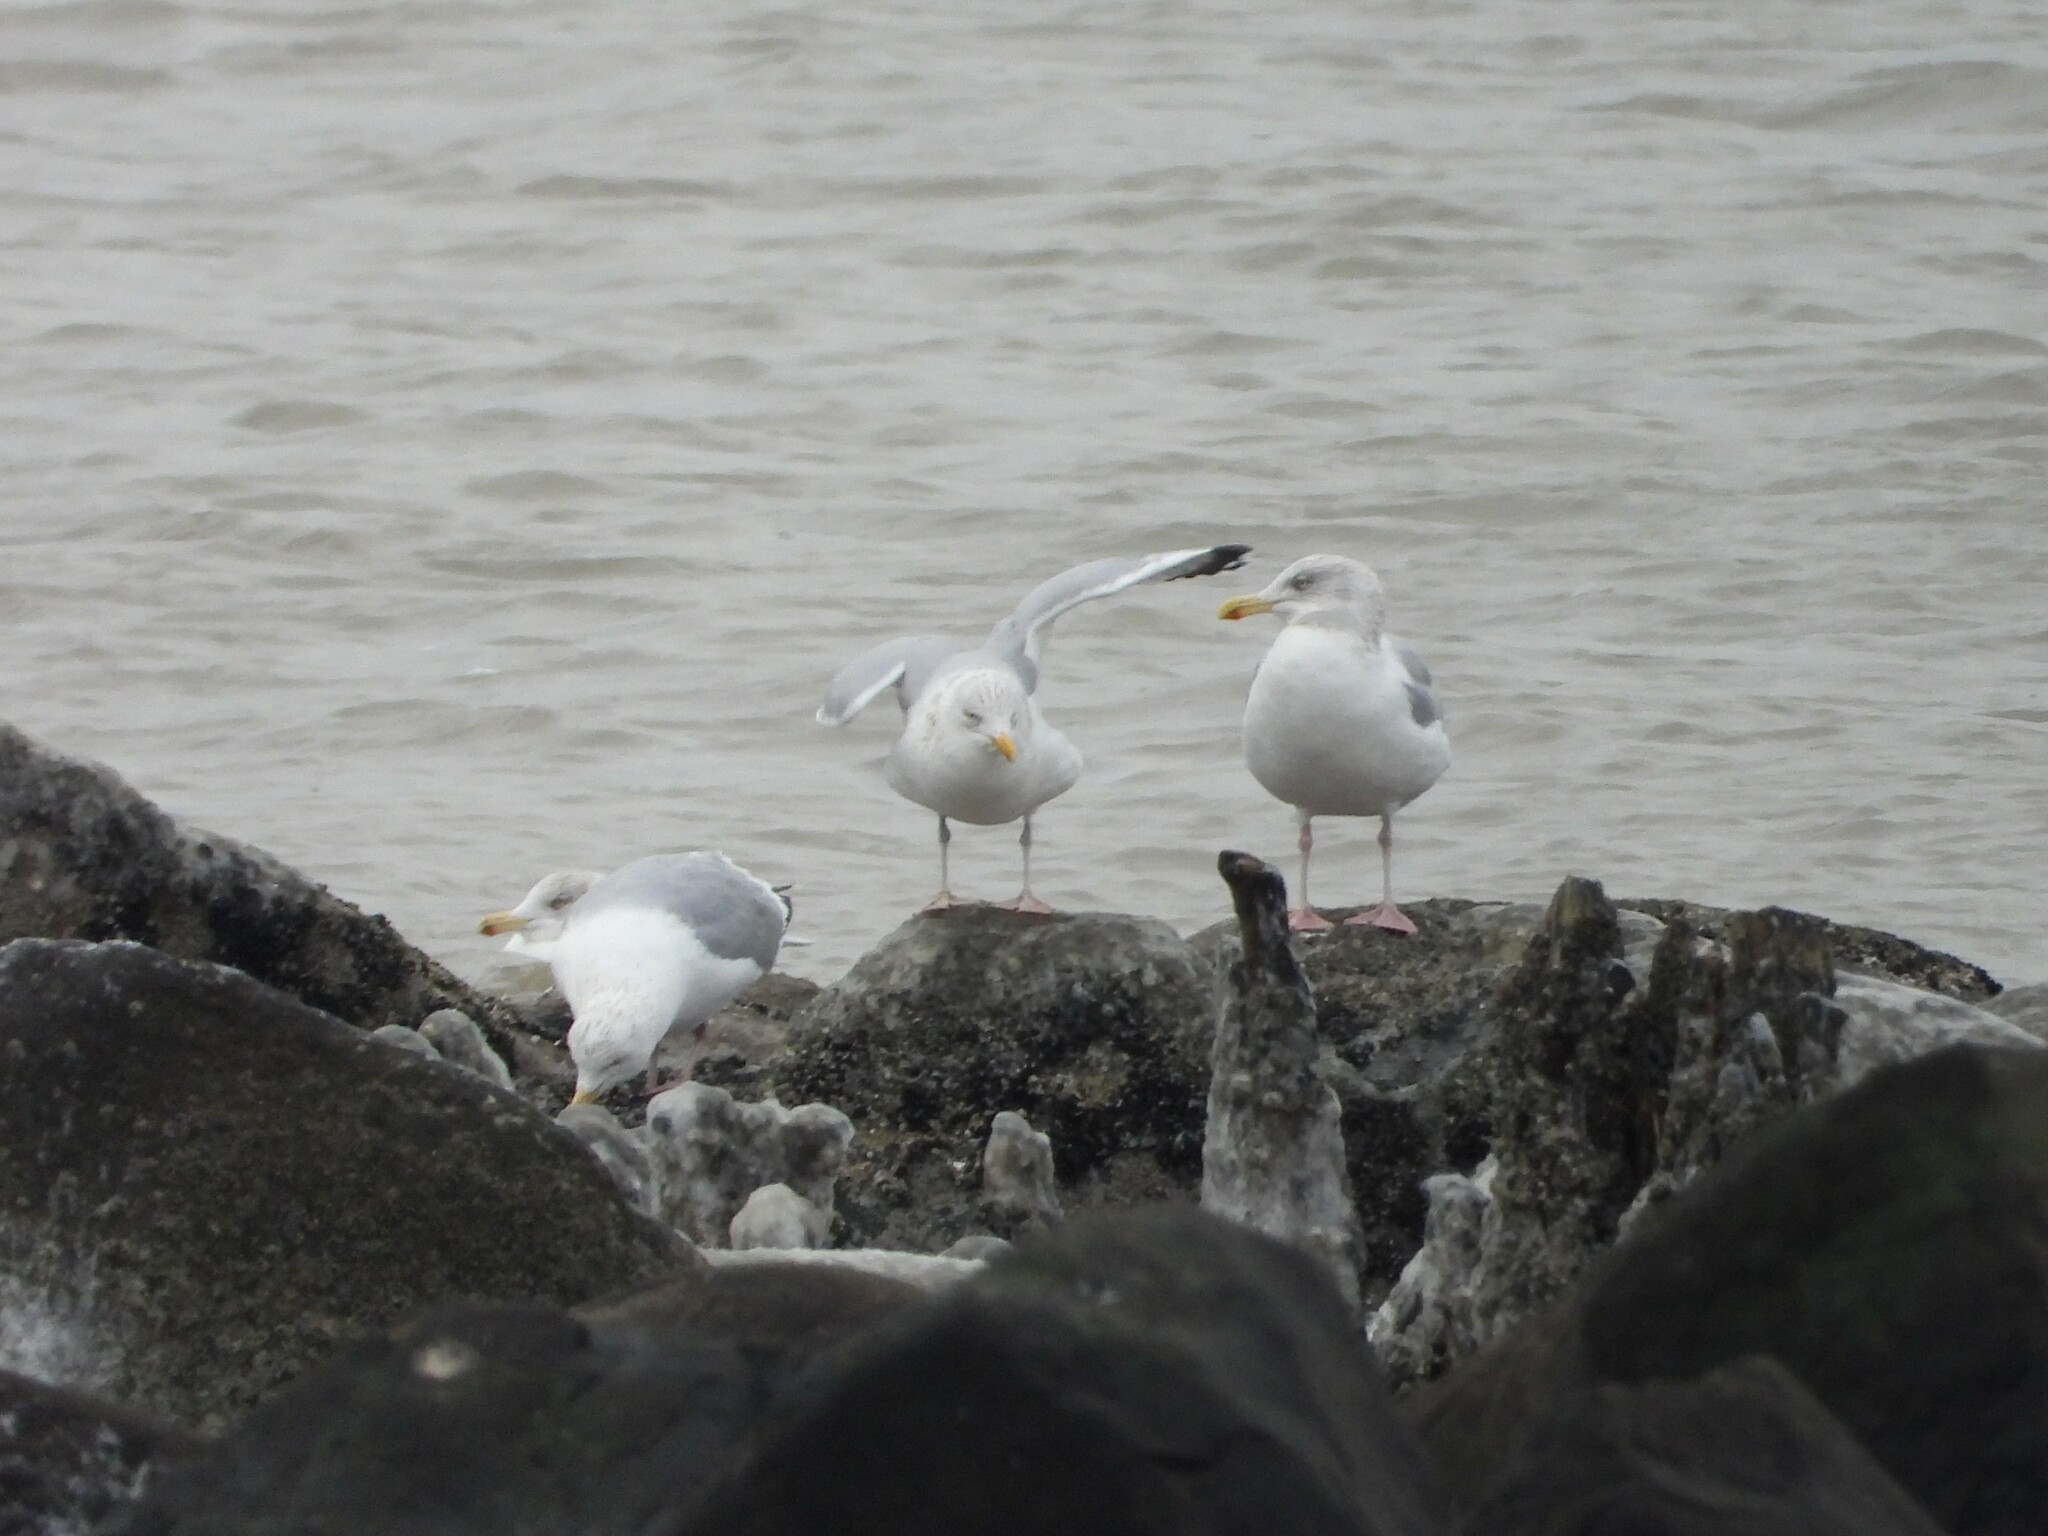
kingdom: Animalia
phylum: Chordata
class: Aves
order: Charadriiformes
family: Laridae
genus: Larus
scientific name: Larus argentatus
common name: Herring gull
